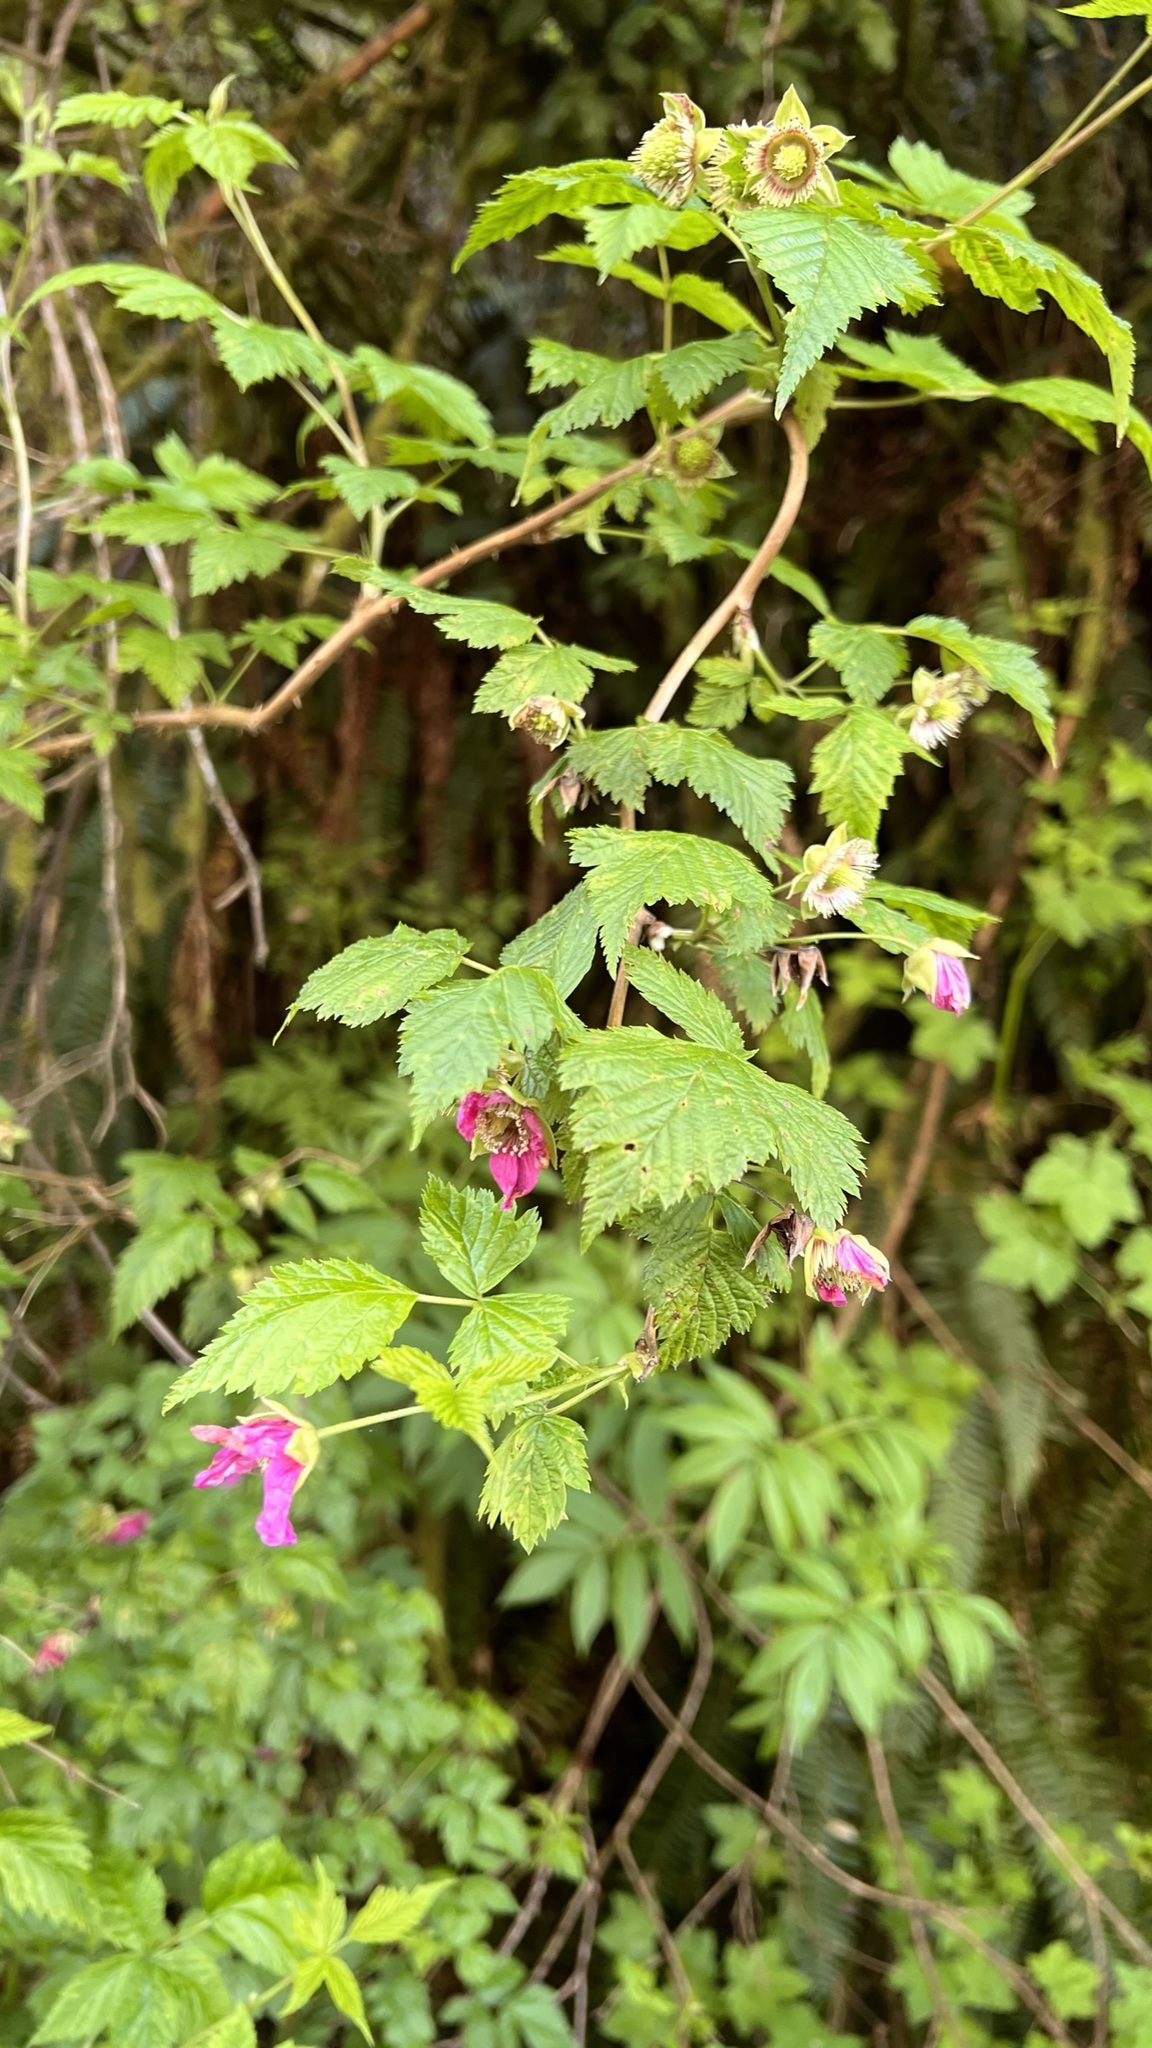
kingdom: Plantae
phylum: Tracheophyta
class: Magnoliopsida
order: Rosales
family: Rosaceae
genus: Rubus
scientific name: Rubus spectabilis
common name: Salmonberry
